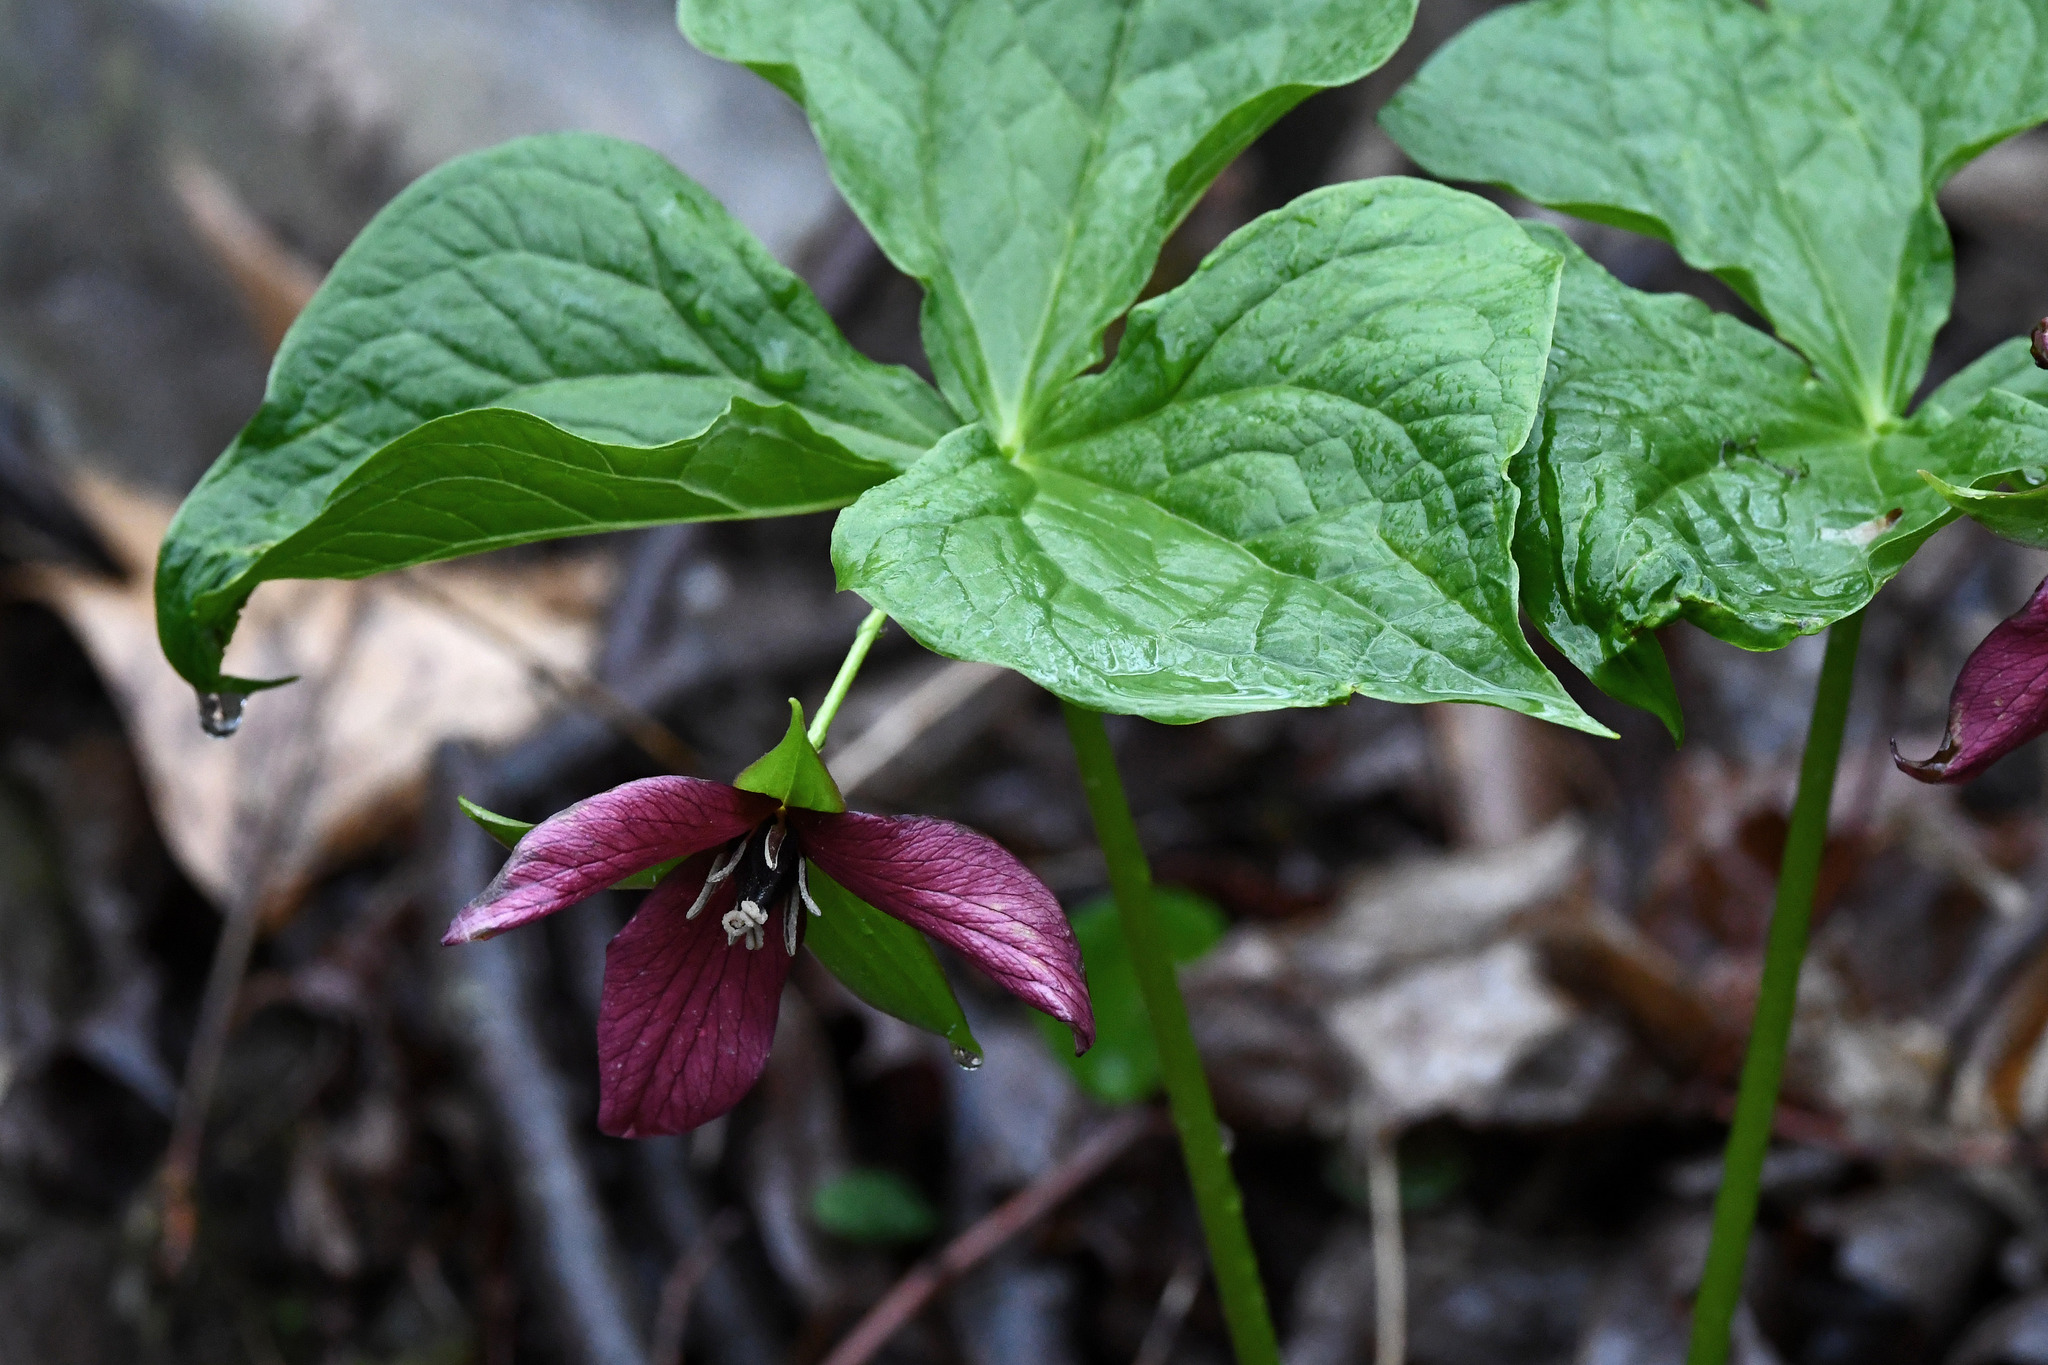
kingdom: Plantae
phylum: Tracheophyta
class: Liliopsida
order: Liliales
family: Melanthiaceae
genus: Trillium
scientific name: Trillium erectum
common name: Purple trillium
